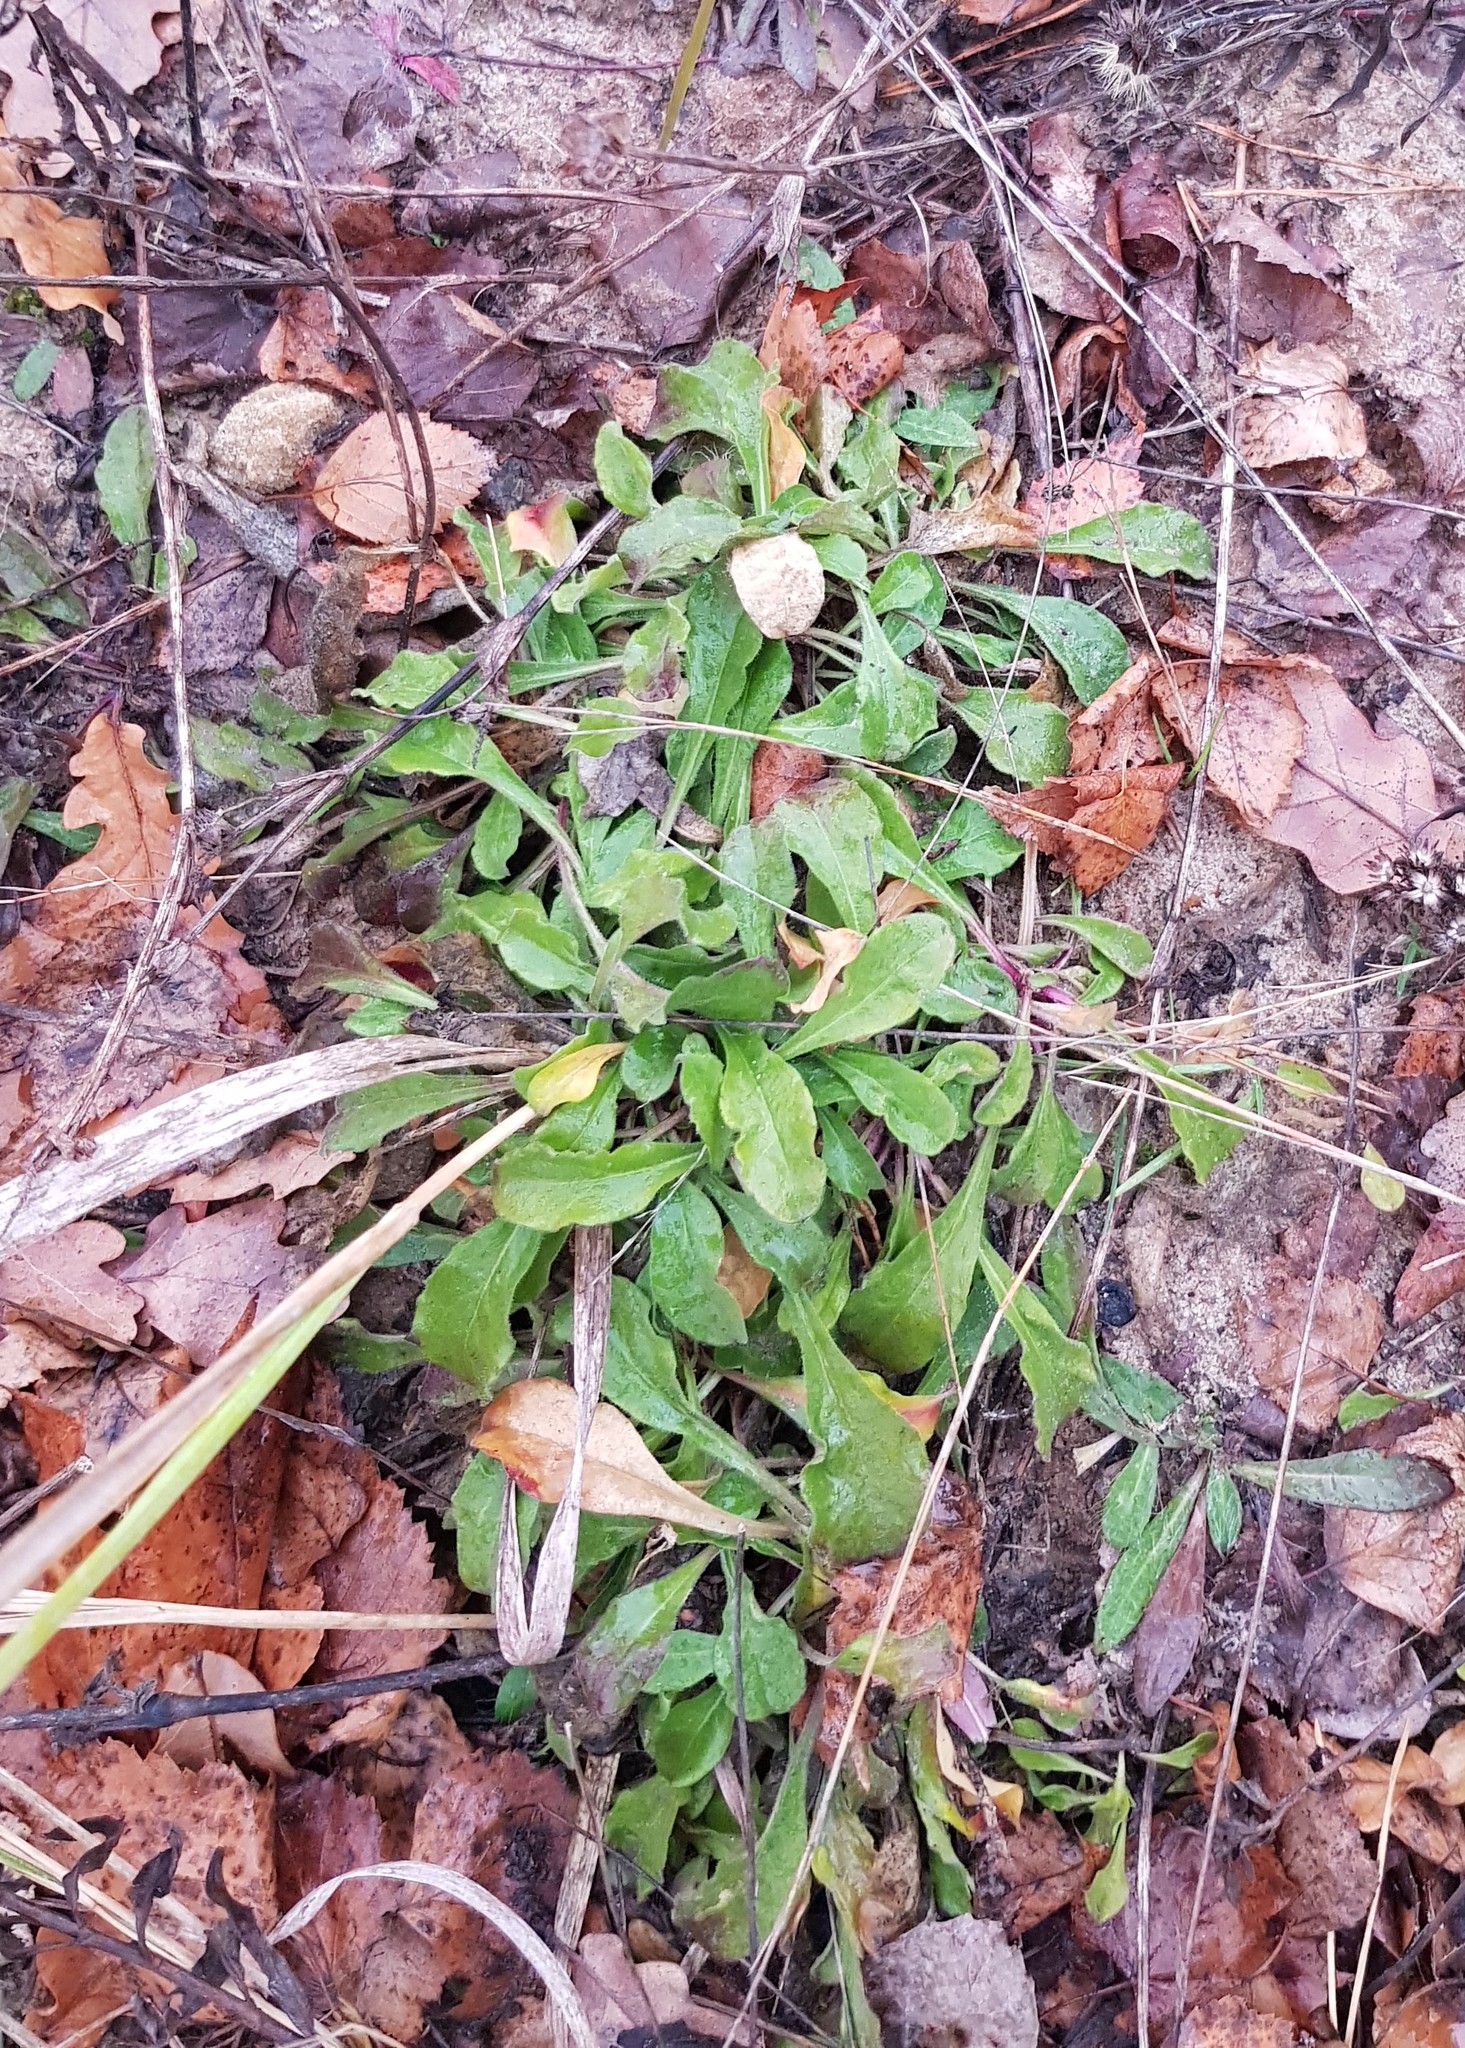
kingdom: Plantae
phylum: Tracheophyta
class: Magnoliopsida
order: Caryophyllales
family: Caryophyllaceae
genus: Silene
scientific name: Silene nutans
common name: Nottingham catchfly
